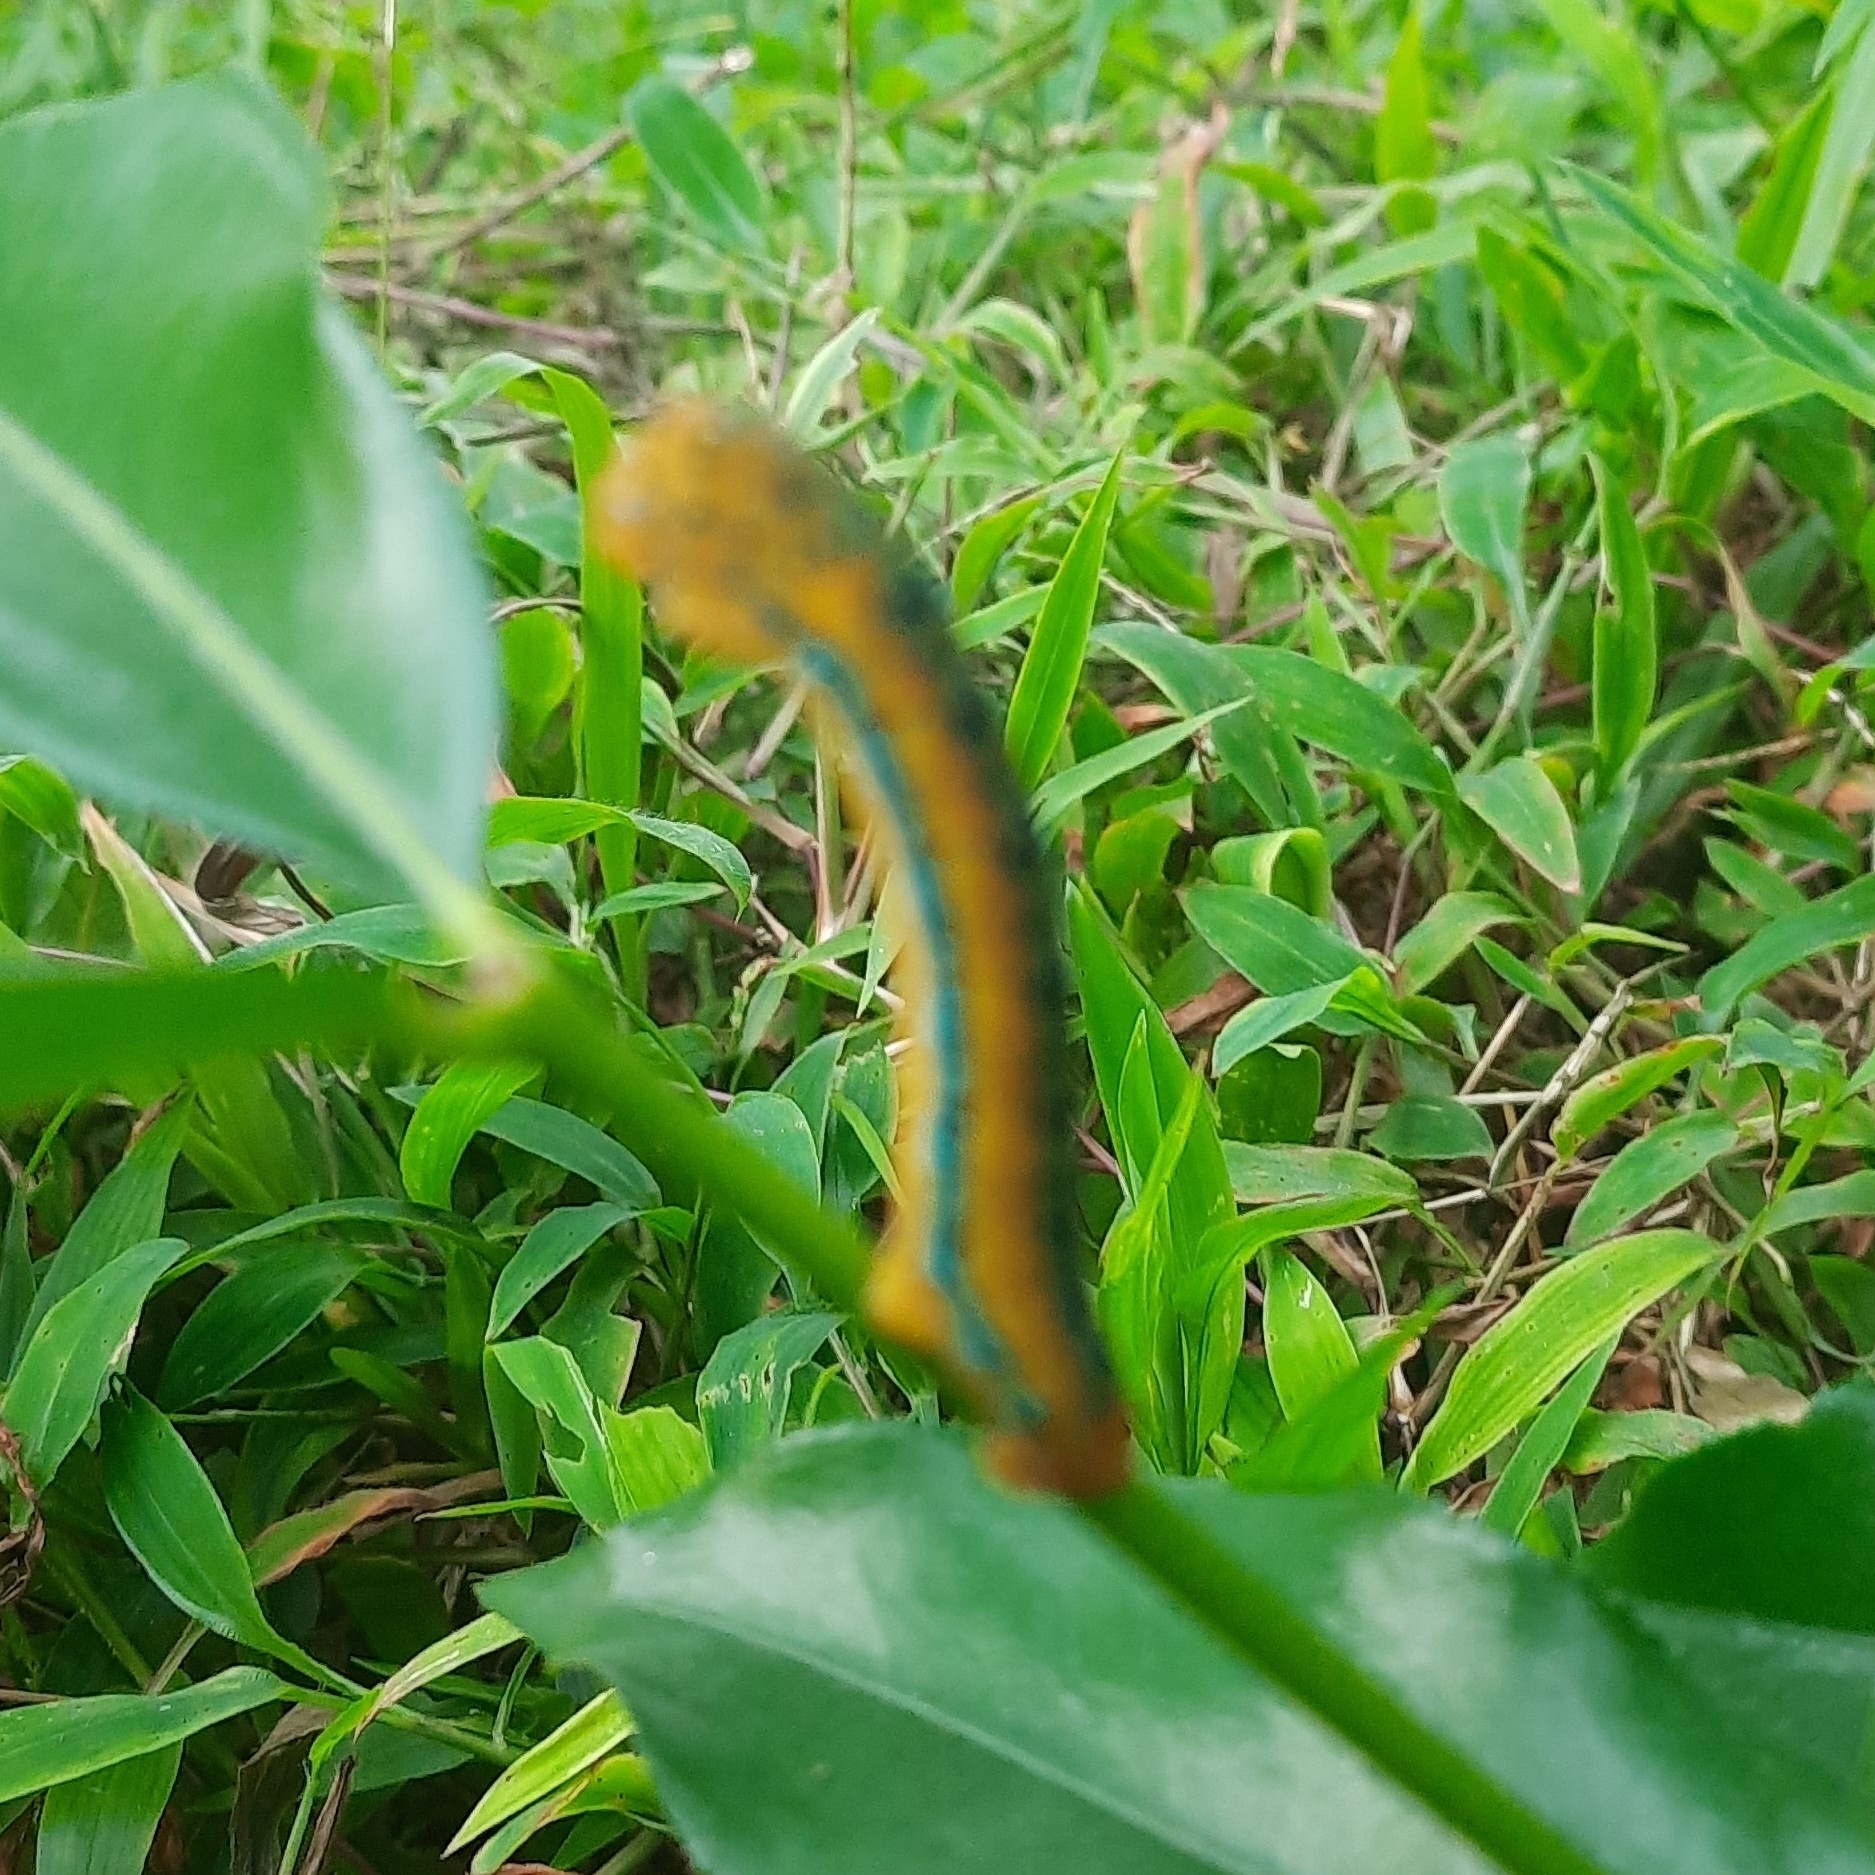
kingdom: Animalia
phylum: Arthropoda
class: Insecta
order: Lepidoptera
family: Geometridae
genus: Dysphania
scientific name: Dysphania percota
